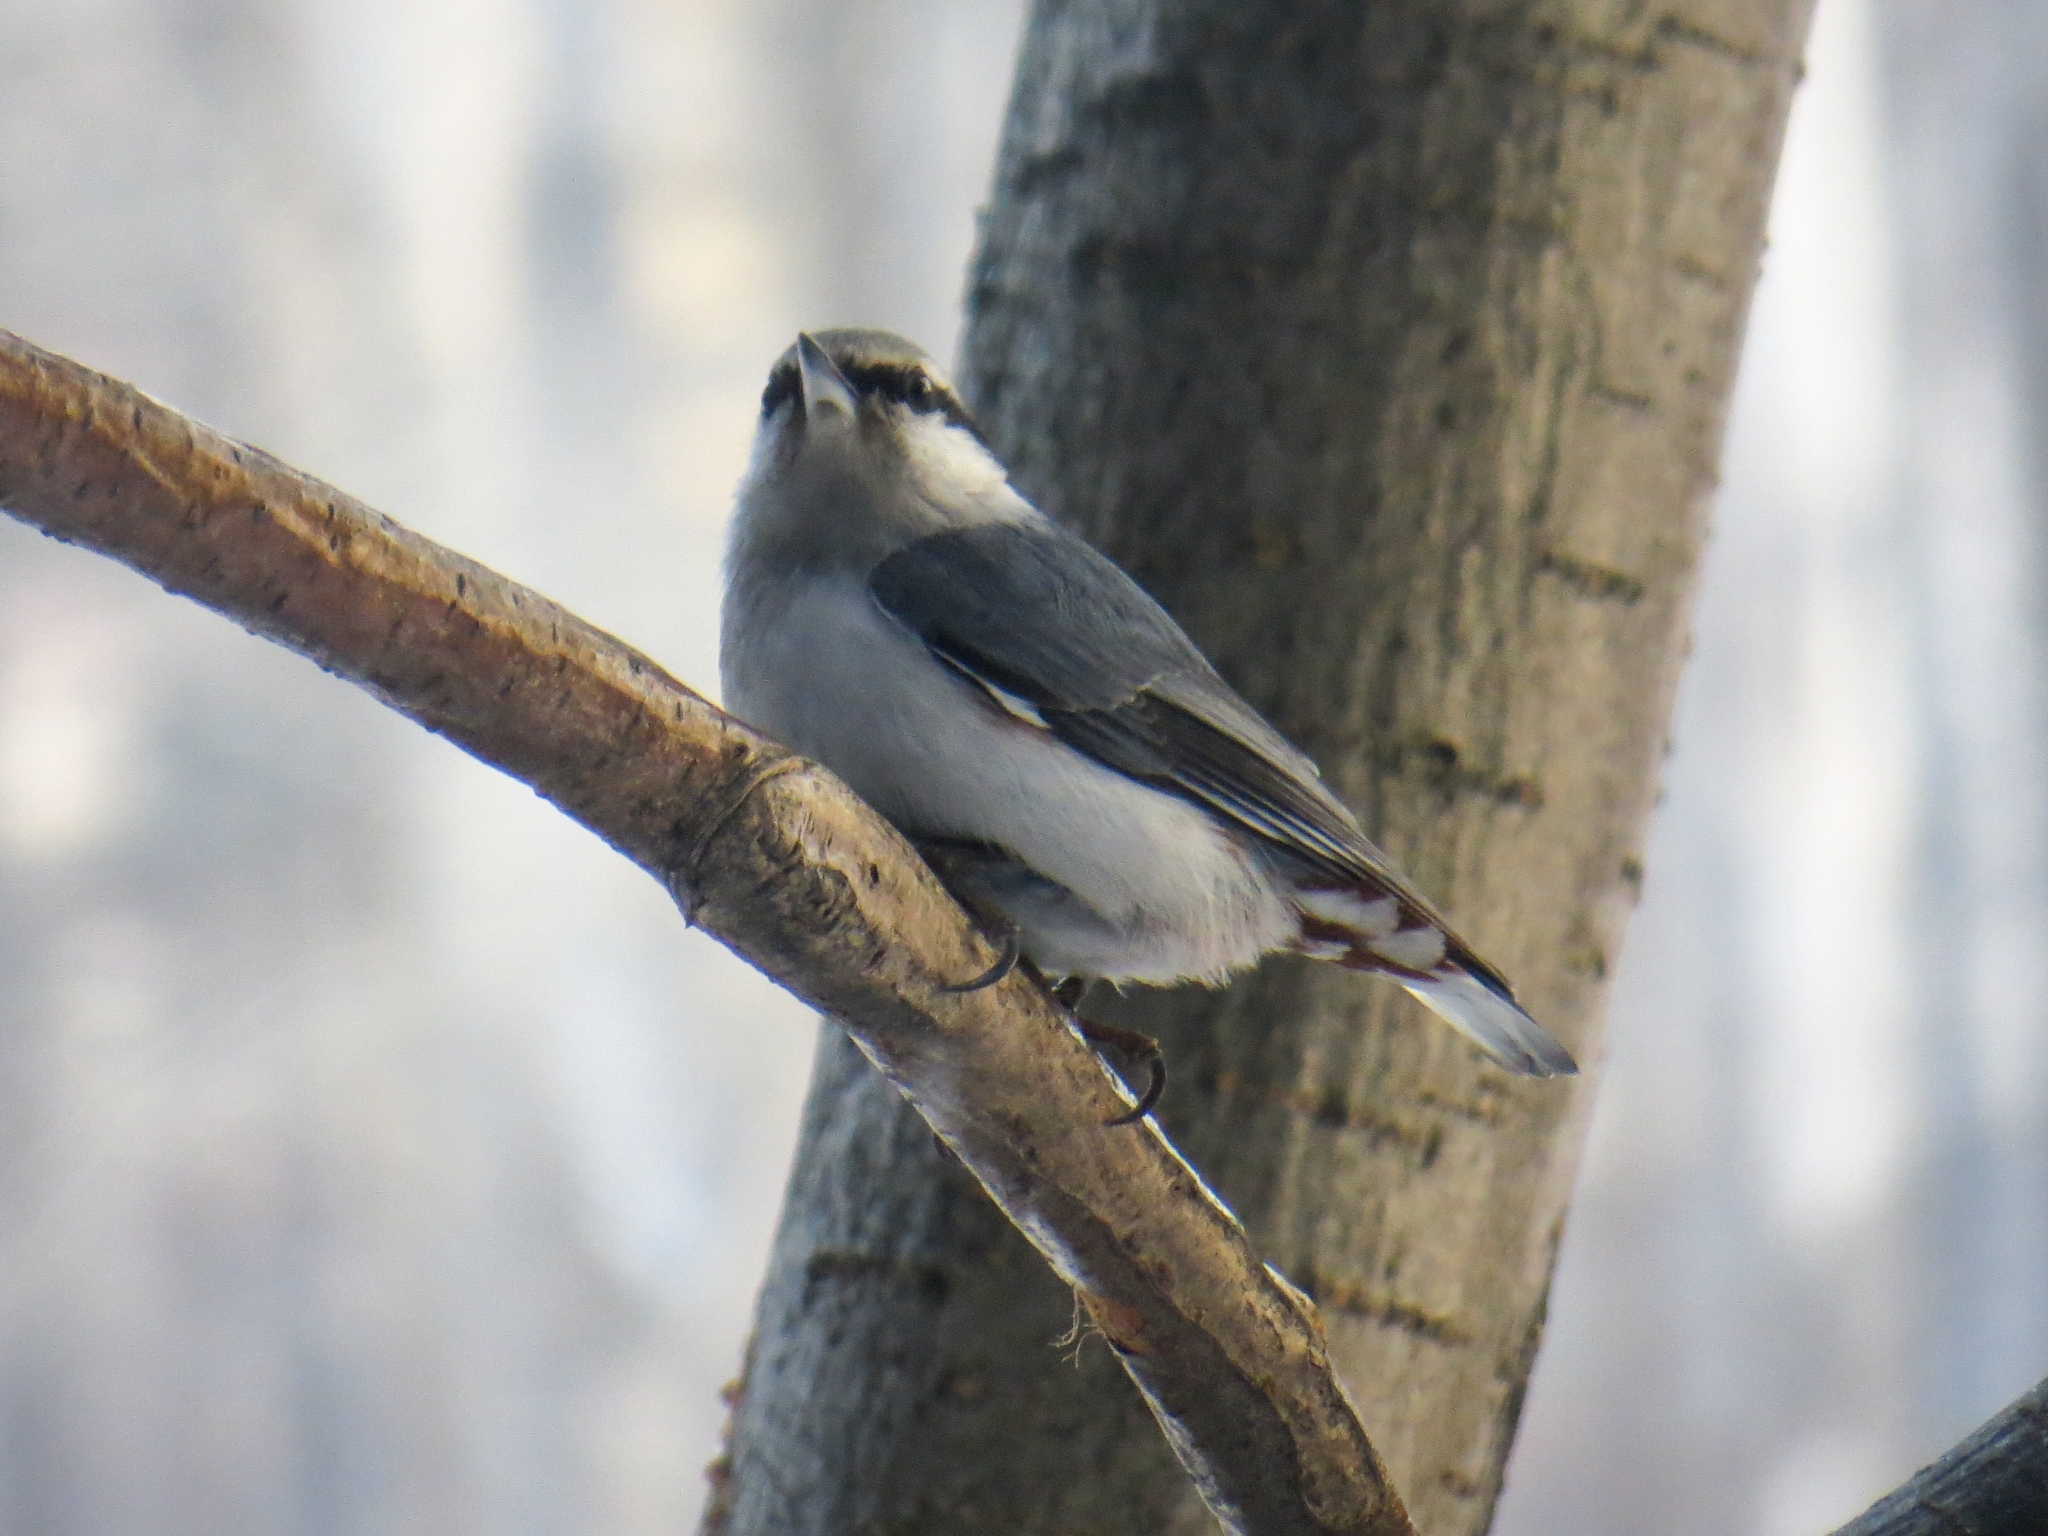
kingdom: Animalia
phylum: Chordata
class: Aves
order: Passeriformes
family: Sittidae
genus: Sitta
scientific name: Sitta europaea
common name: Eurasian nuthatch
